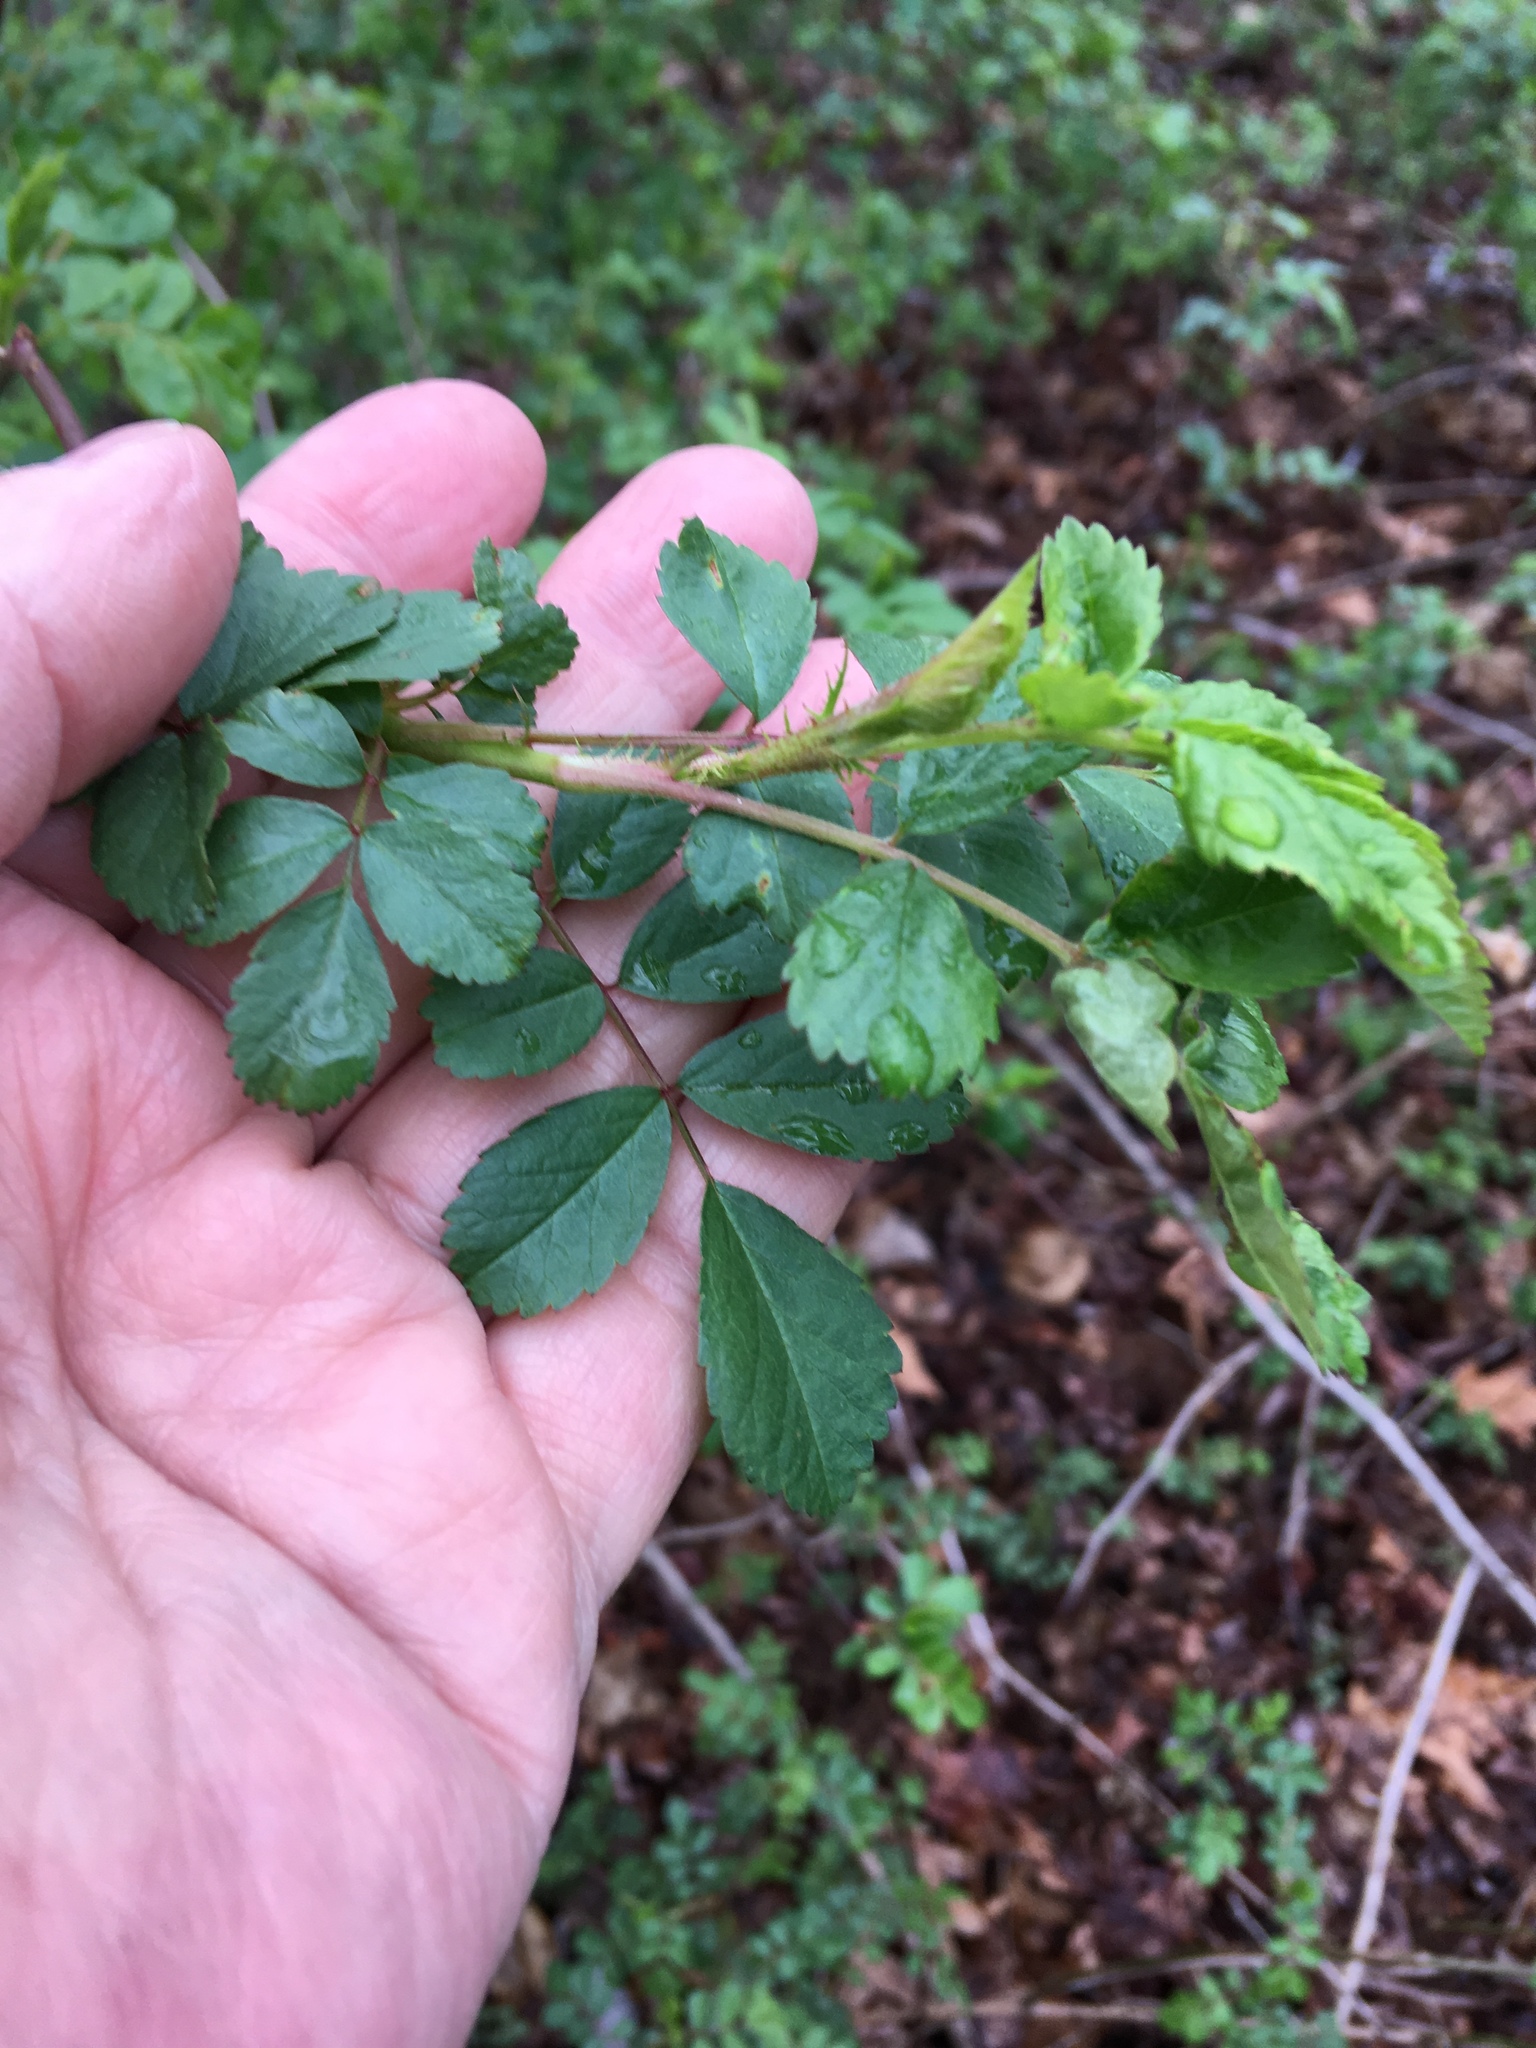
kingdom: Plantae
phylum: Tracheophyta
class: Magnoliopsida
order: Rosales
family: Rosaceae
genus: Rosa
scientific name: Rosa multiflora
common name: Multiflora rose
